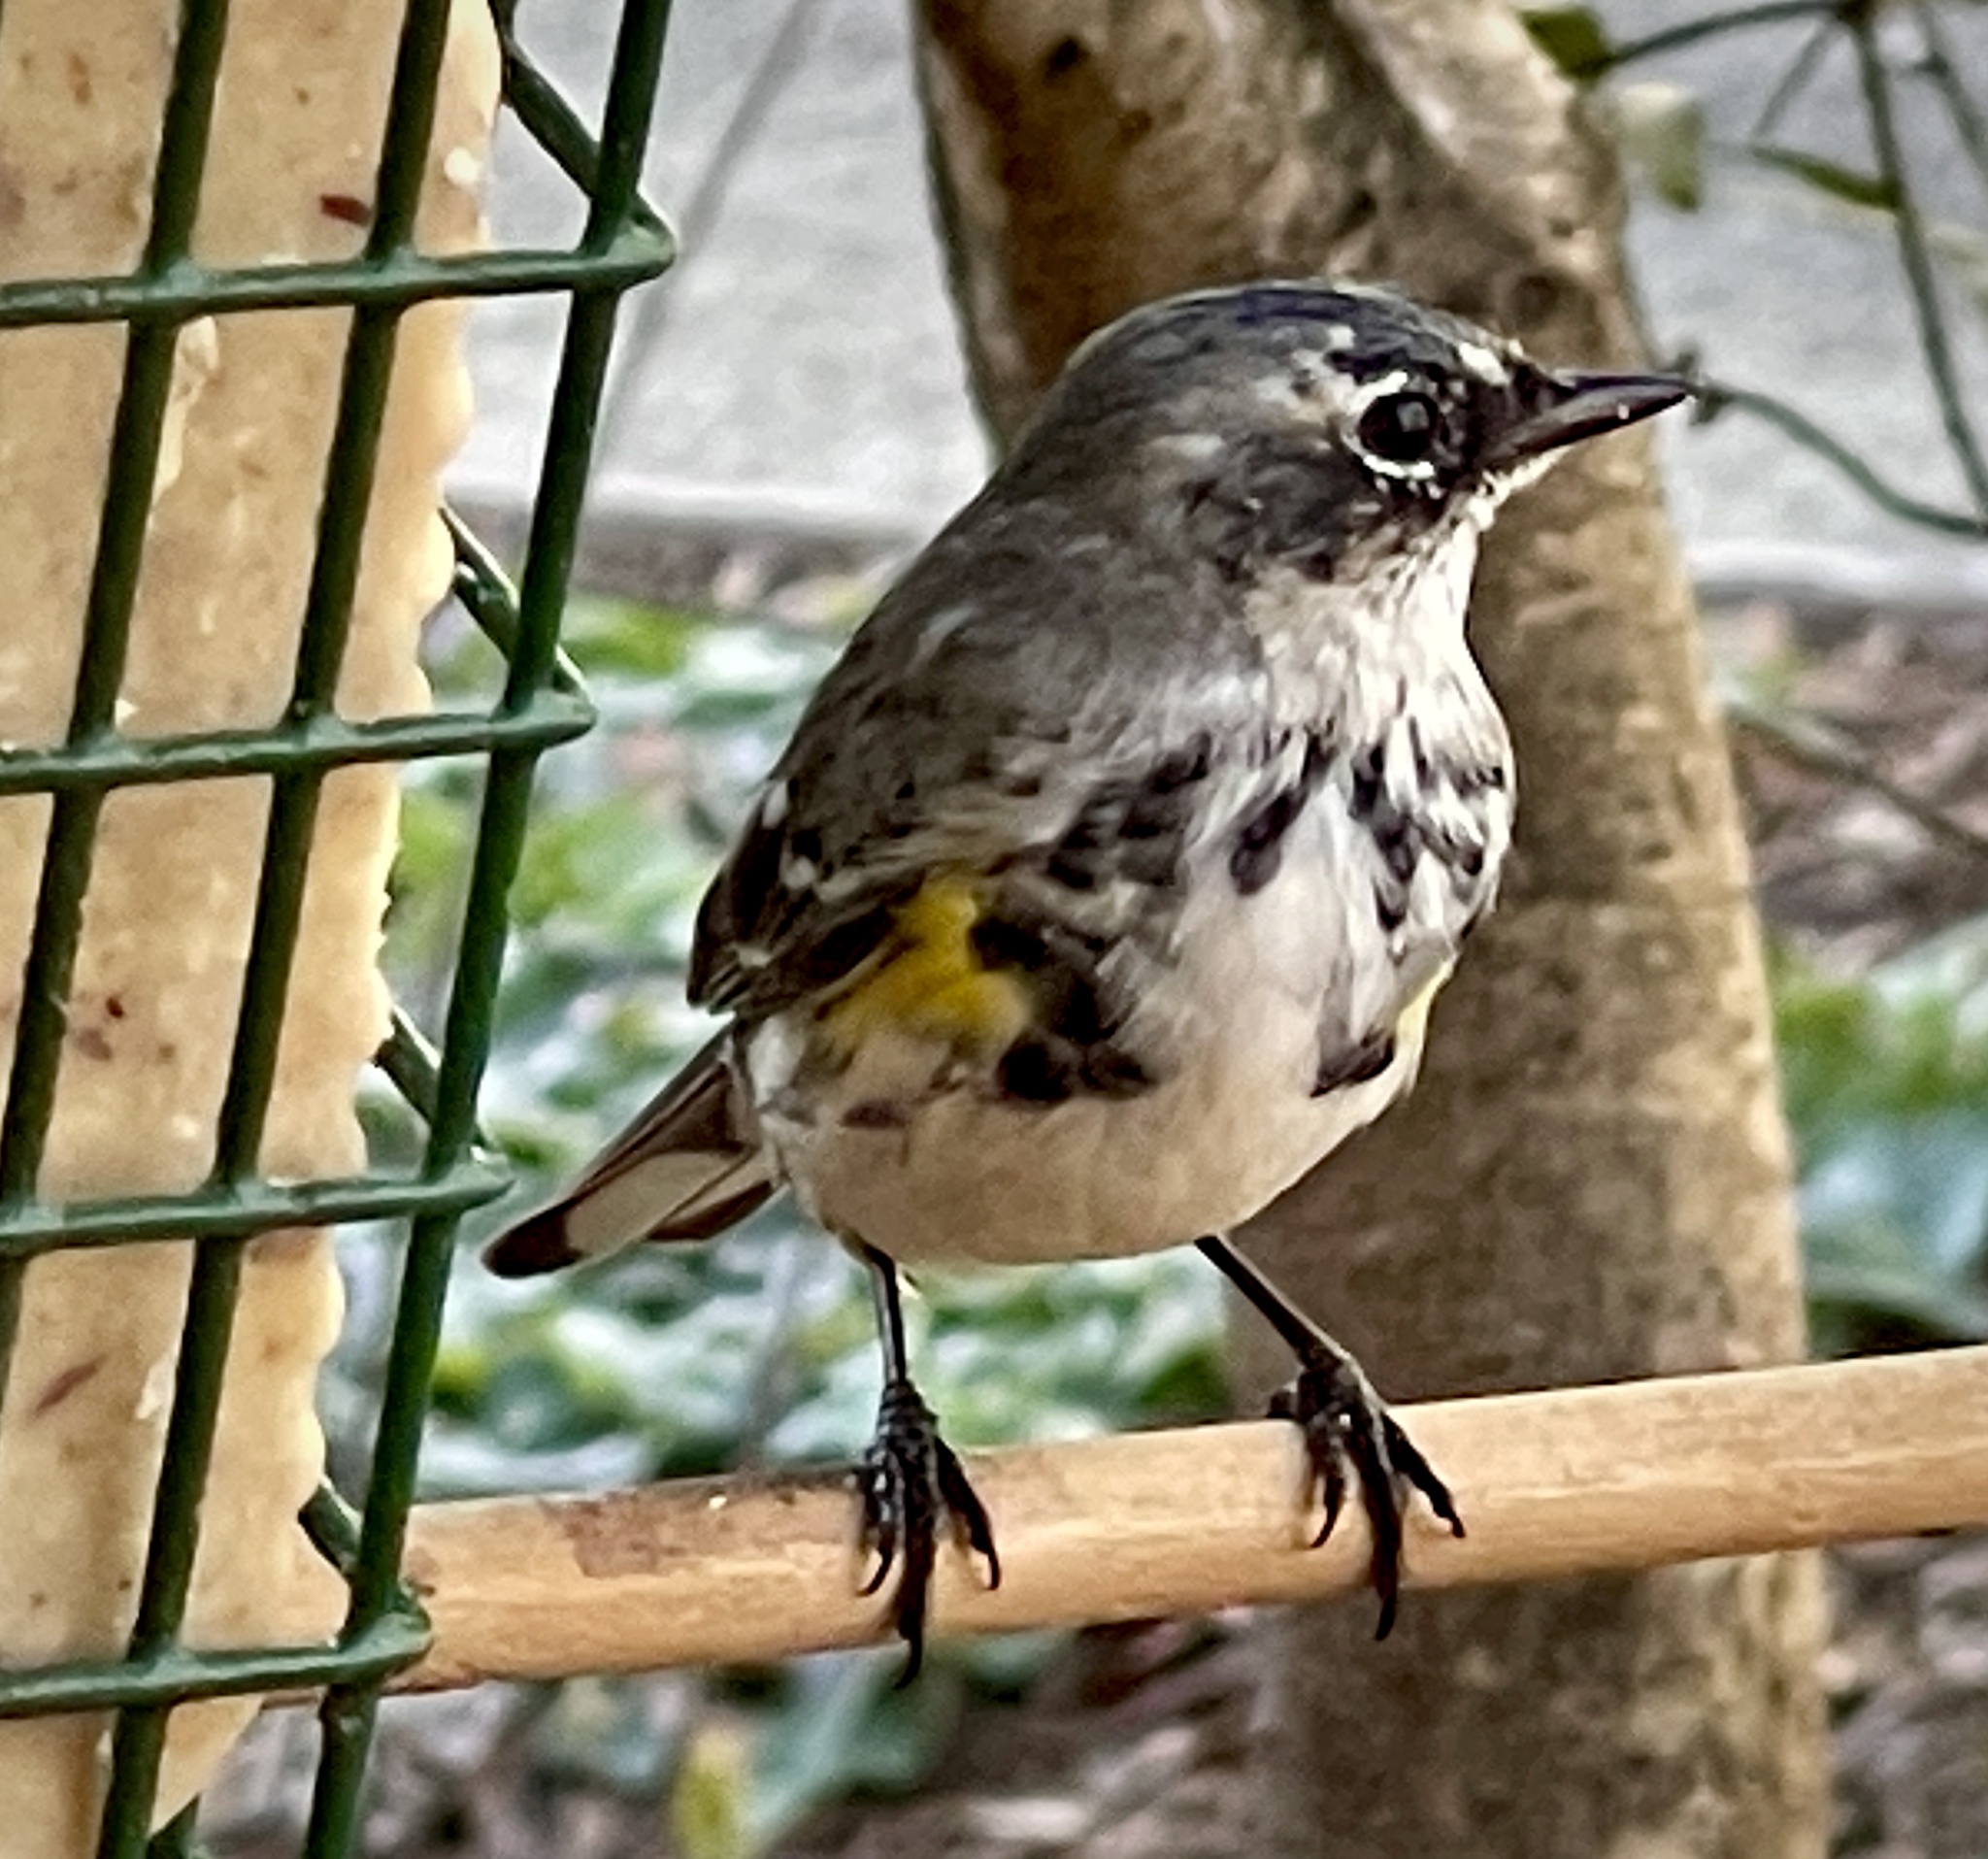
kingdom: Animalia
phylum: Chordata
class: Aves
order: Passeriformes
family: Parulidae
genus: Setophaga
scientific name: Setophaga coronata
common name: Myrtle warbler
